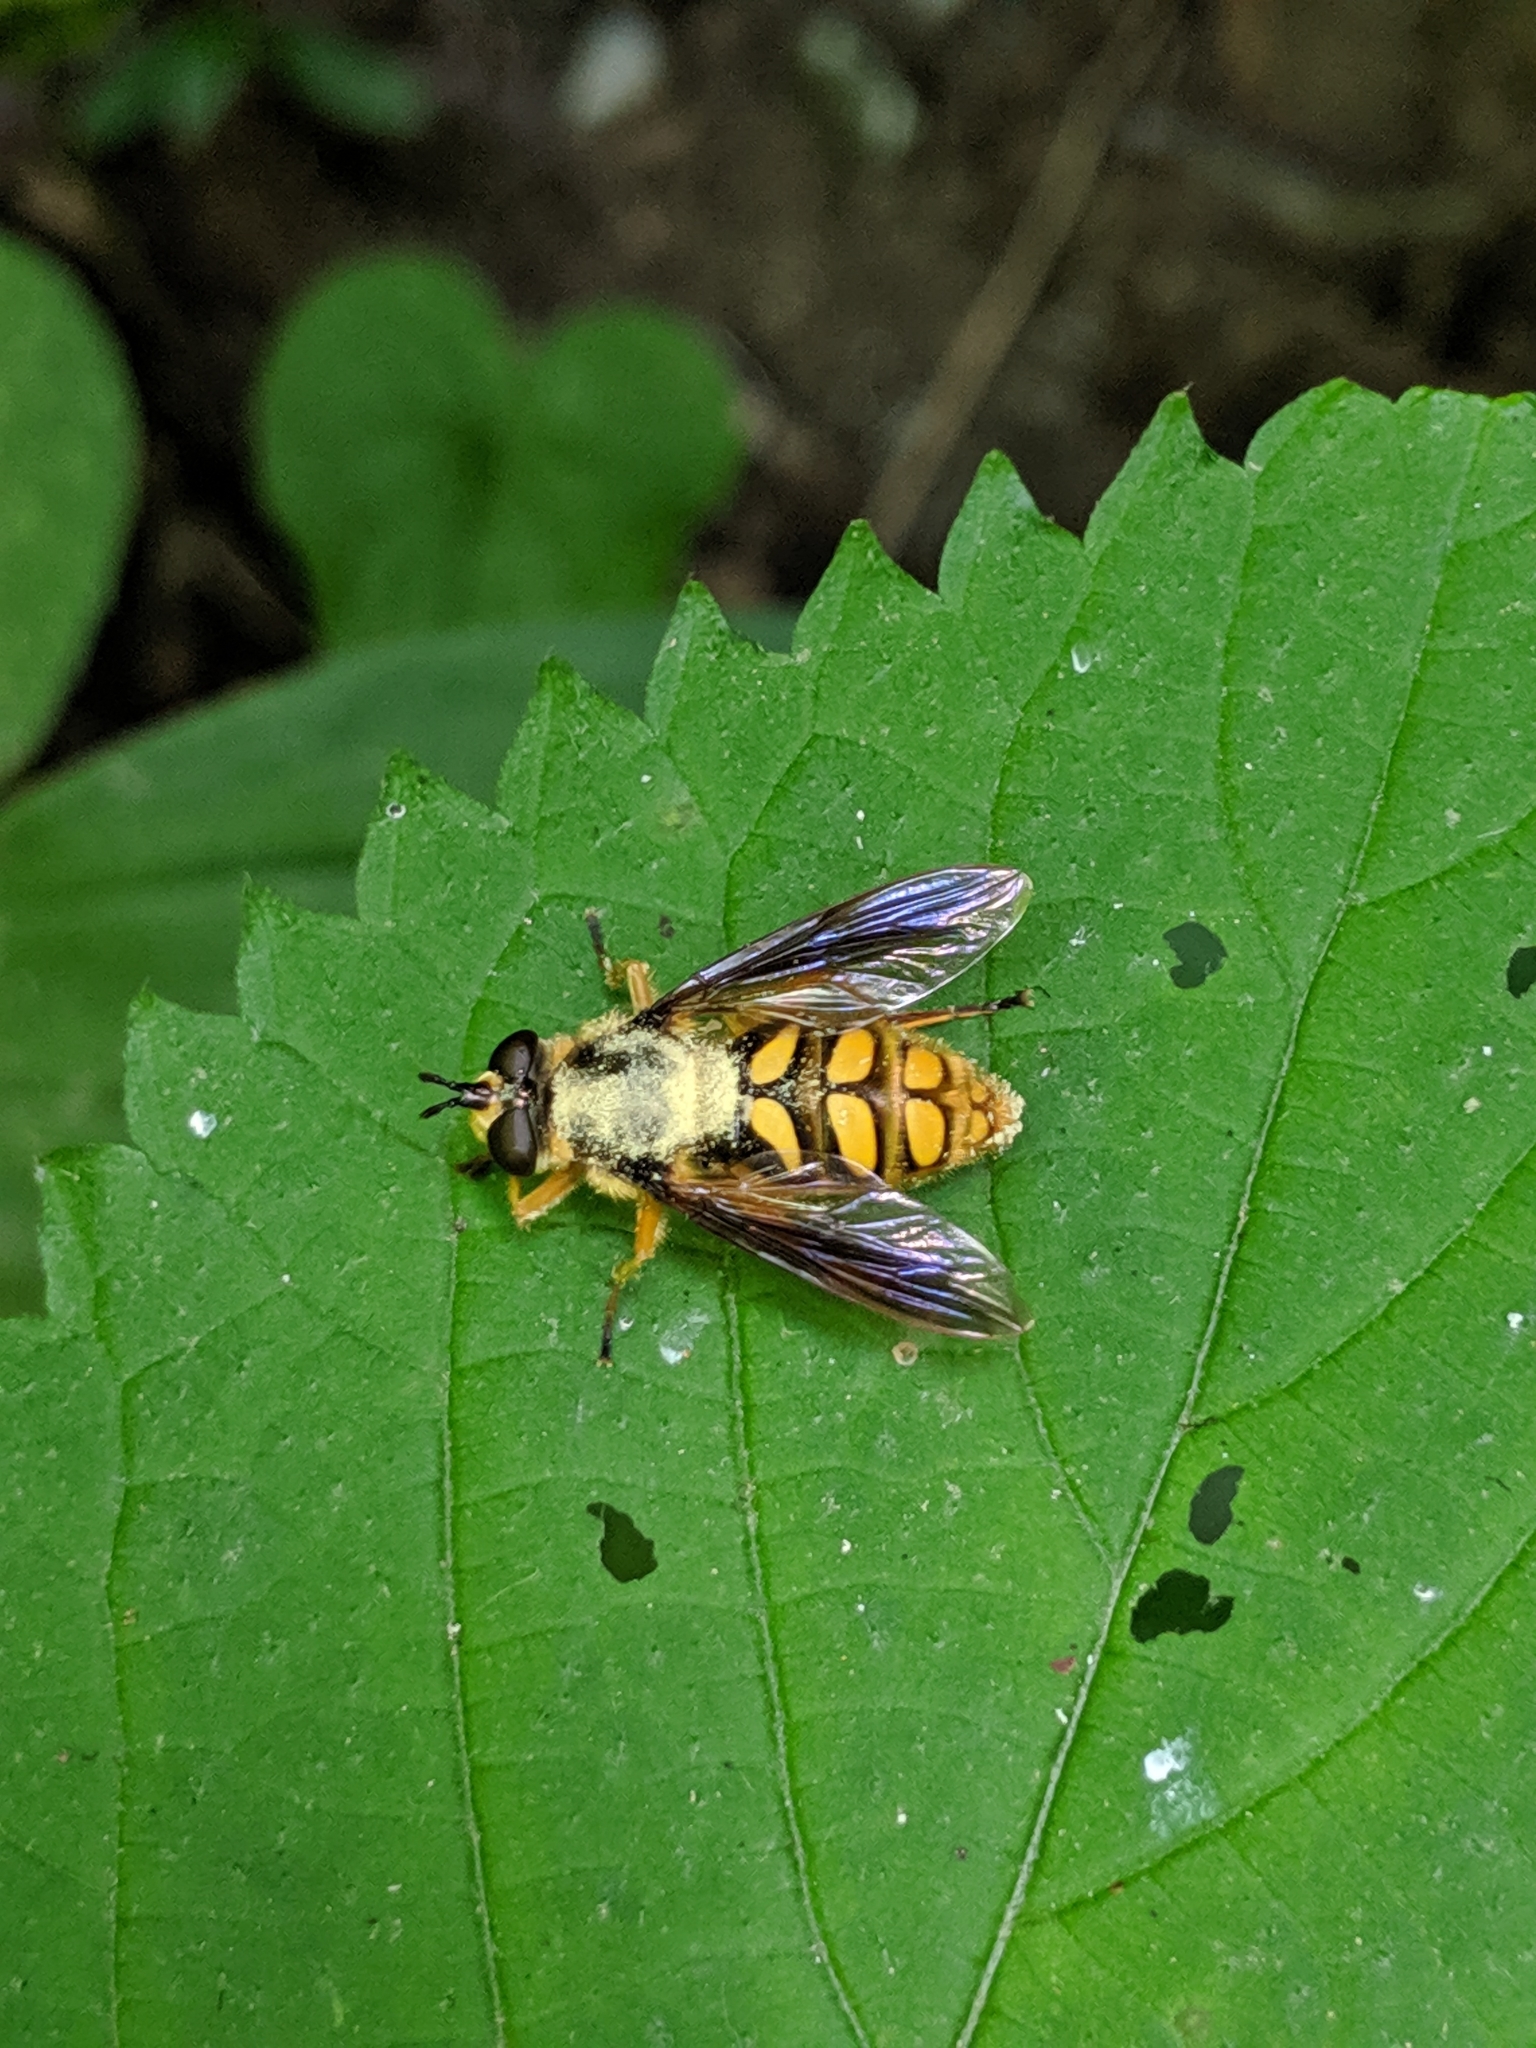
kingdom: Animalia
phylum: Arthropoda
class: Insecta
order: Diptera
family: Syrphidae
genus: Somula
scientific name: Somula decora
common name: Spotted wood fly
